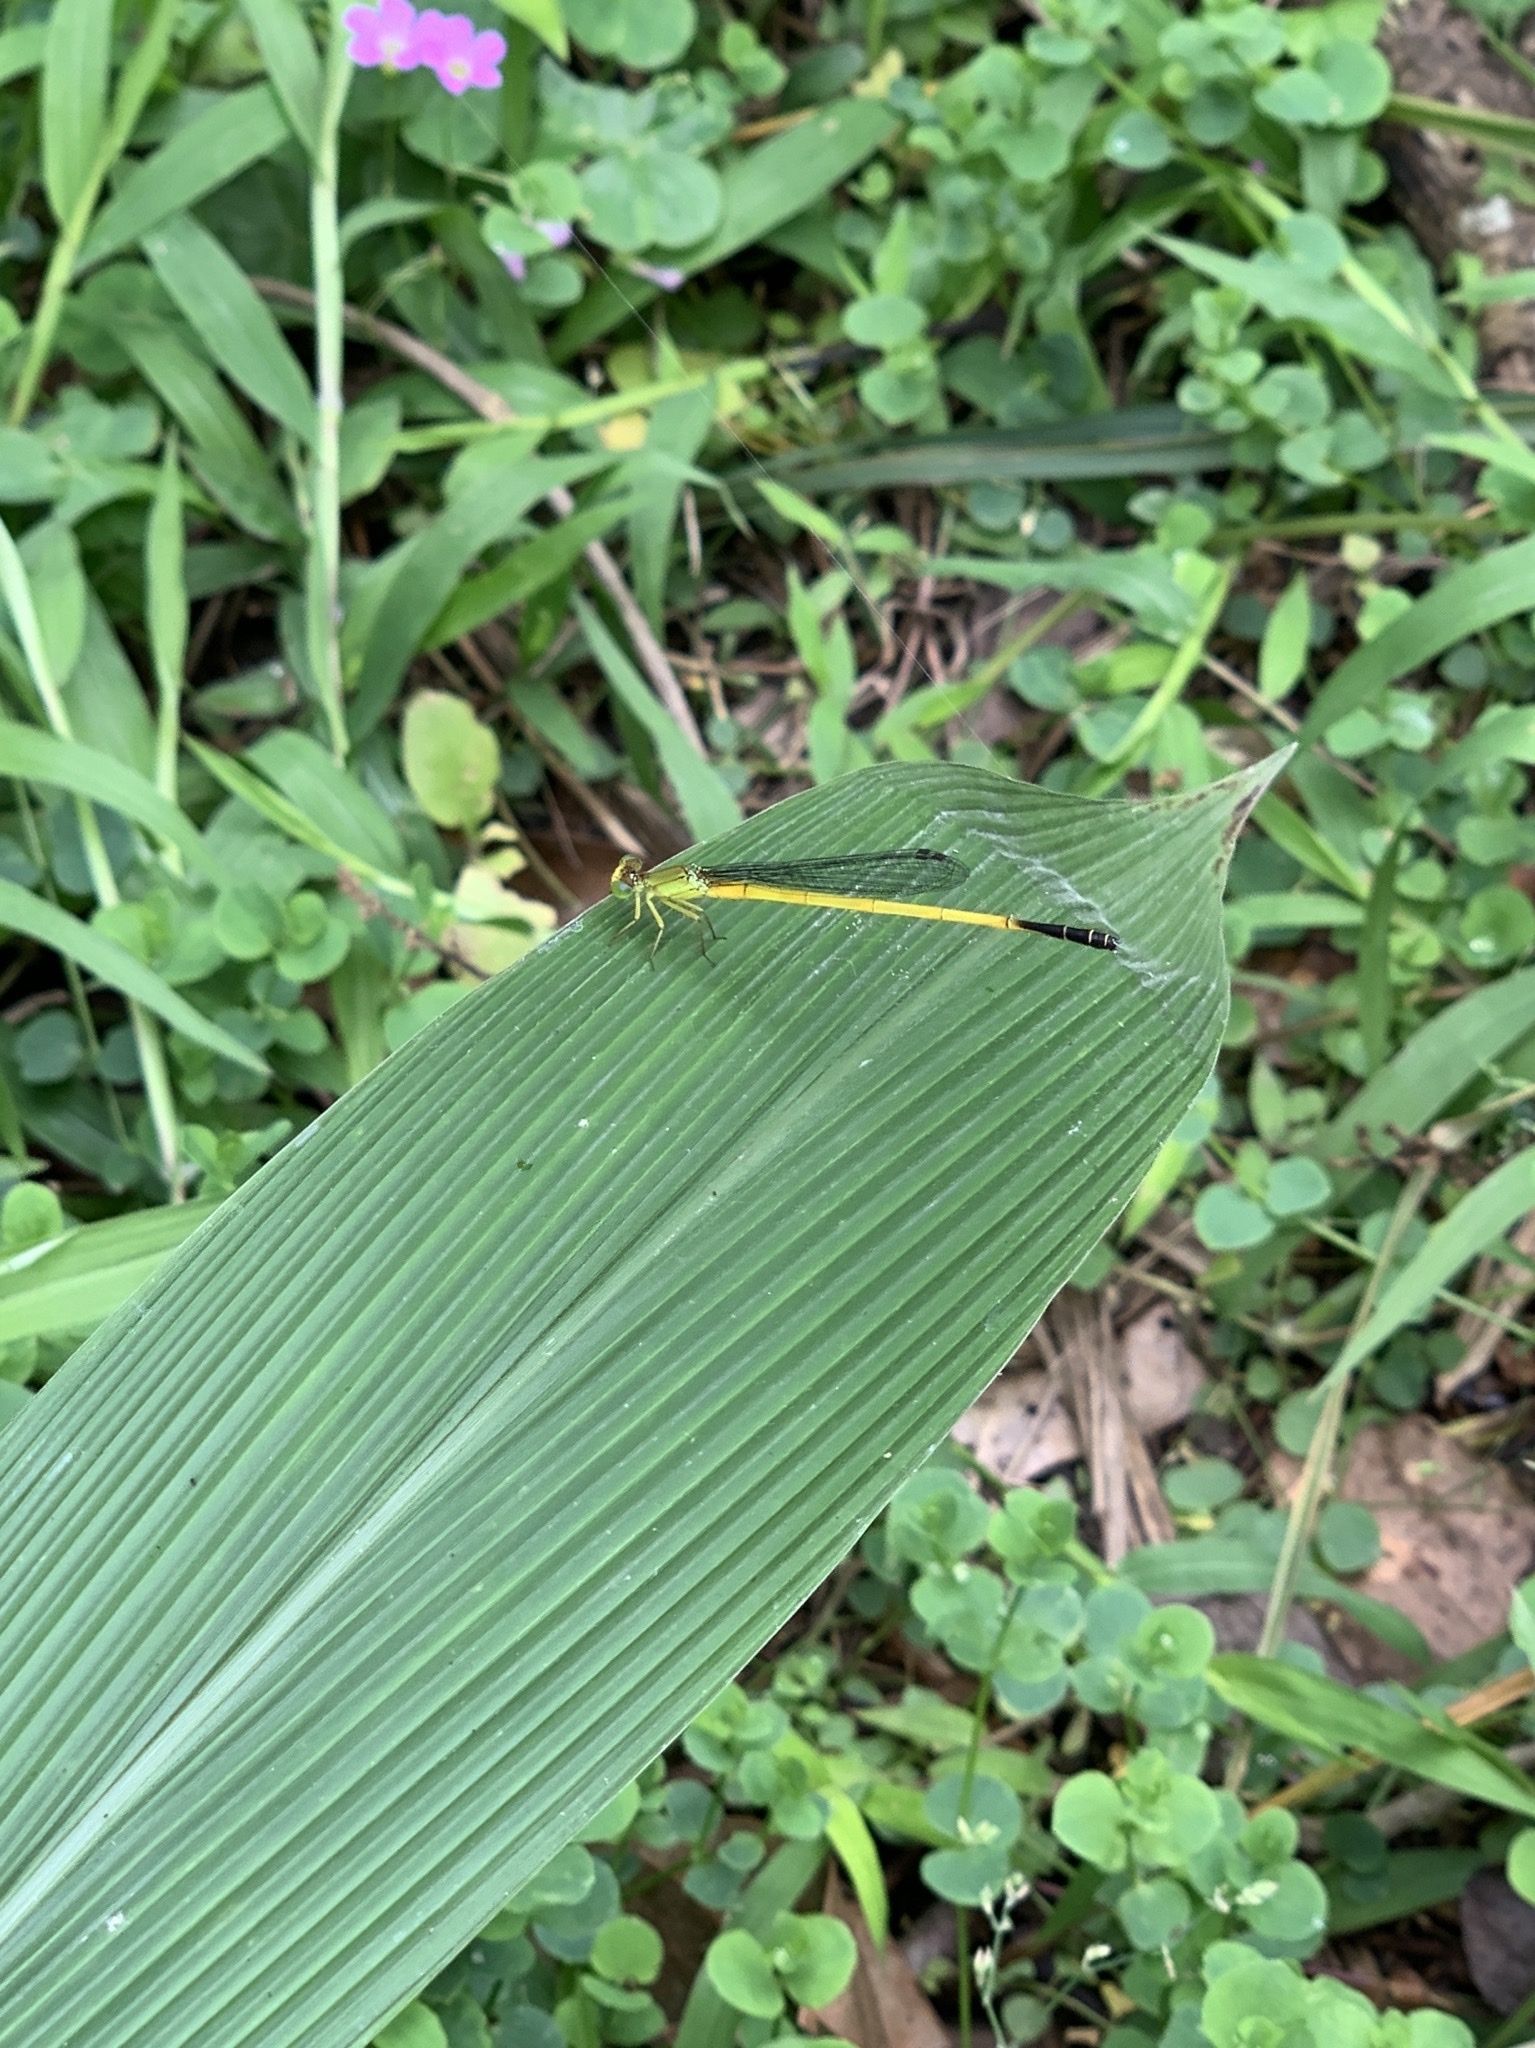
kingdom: Animalia
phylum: Arthropoda
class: Insecta
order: Odonata
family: Coenagrionidae
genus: Ceriagrion
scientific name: Ceriagrion fallax
